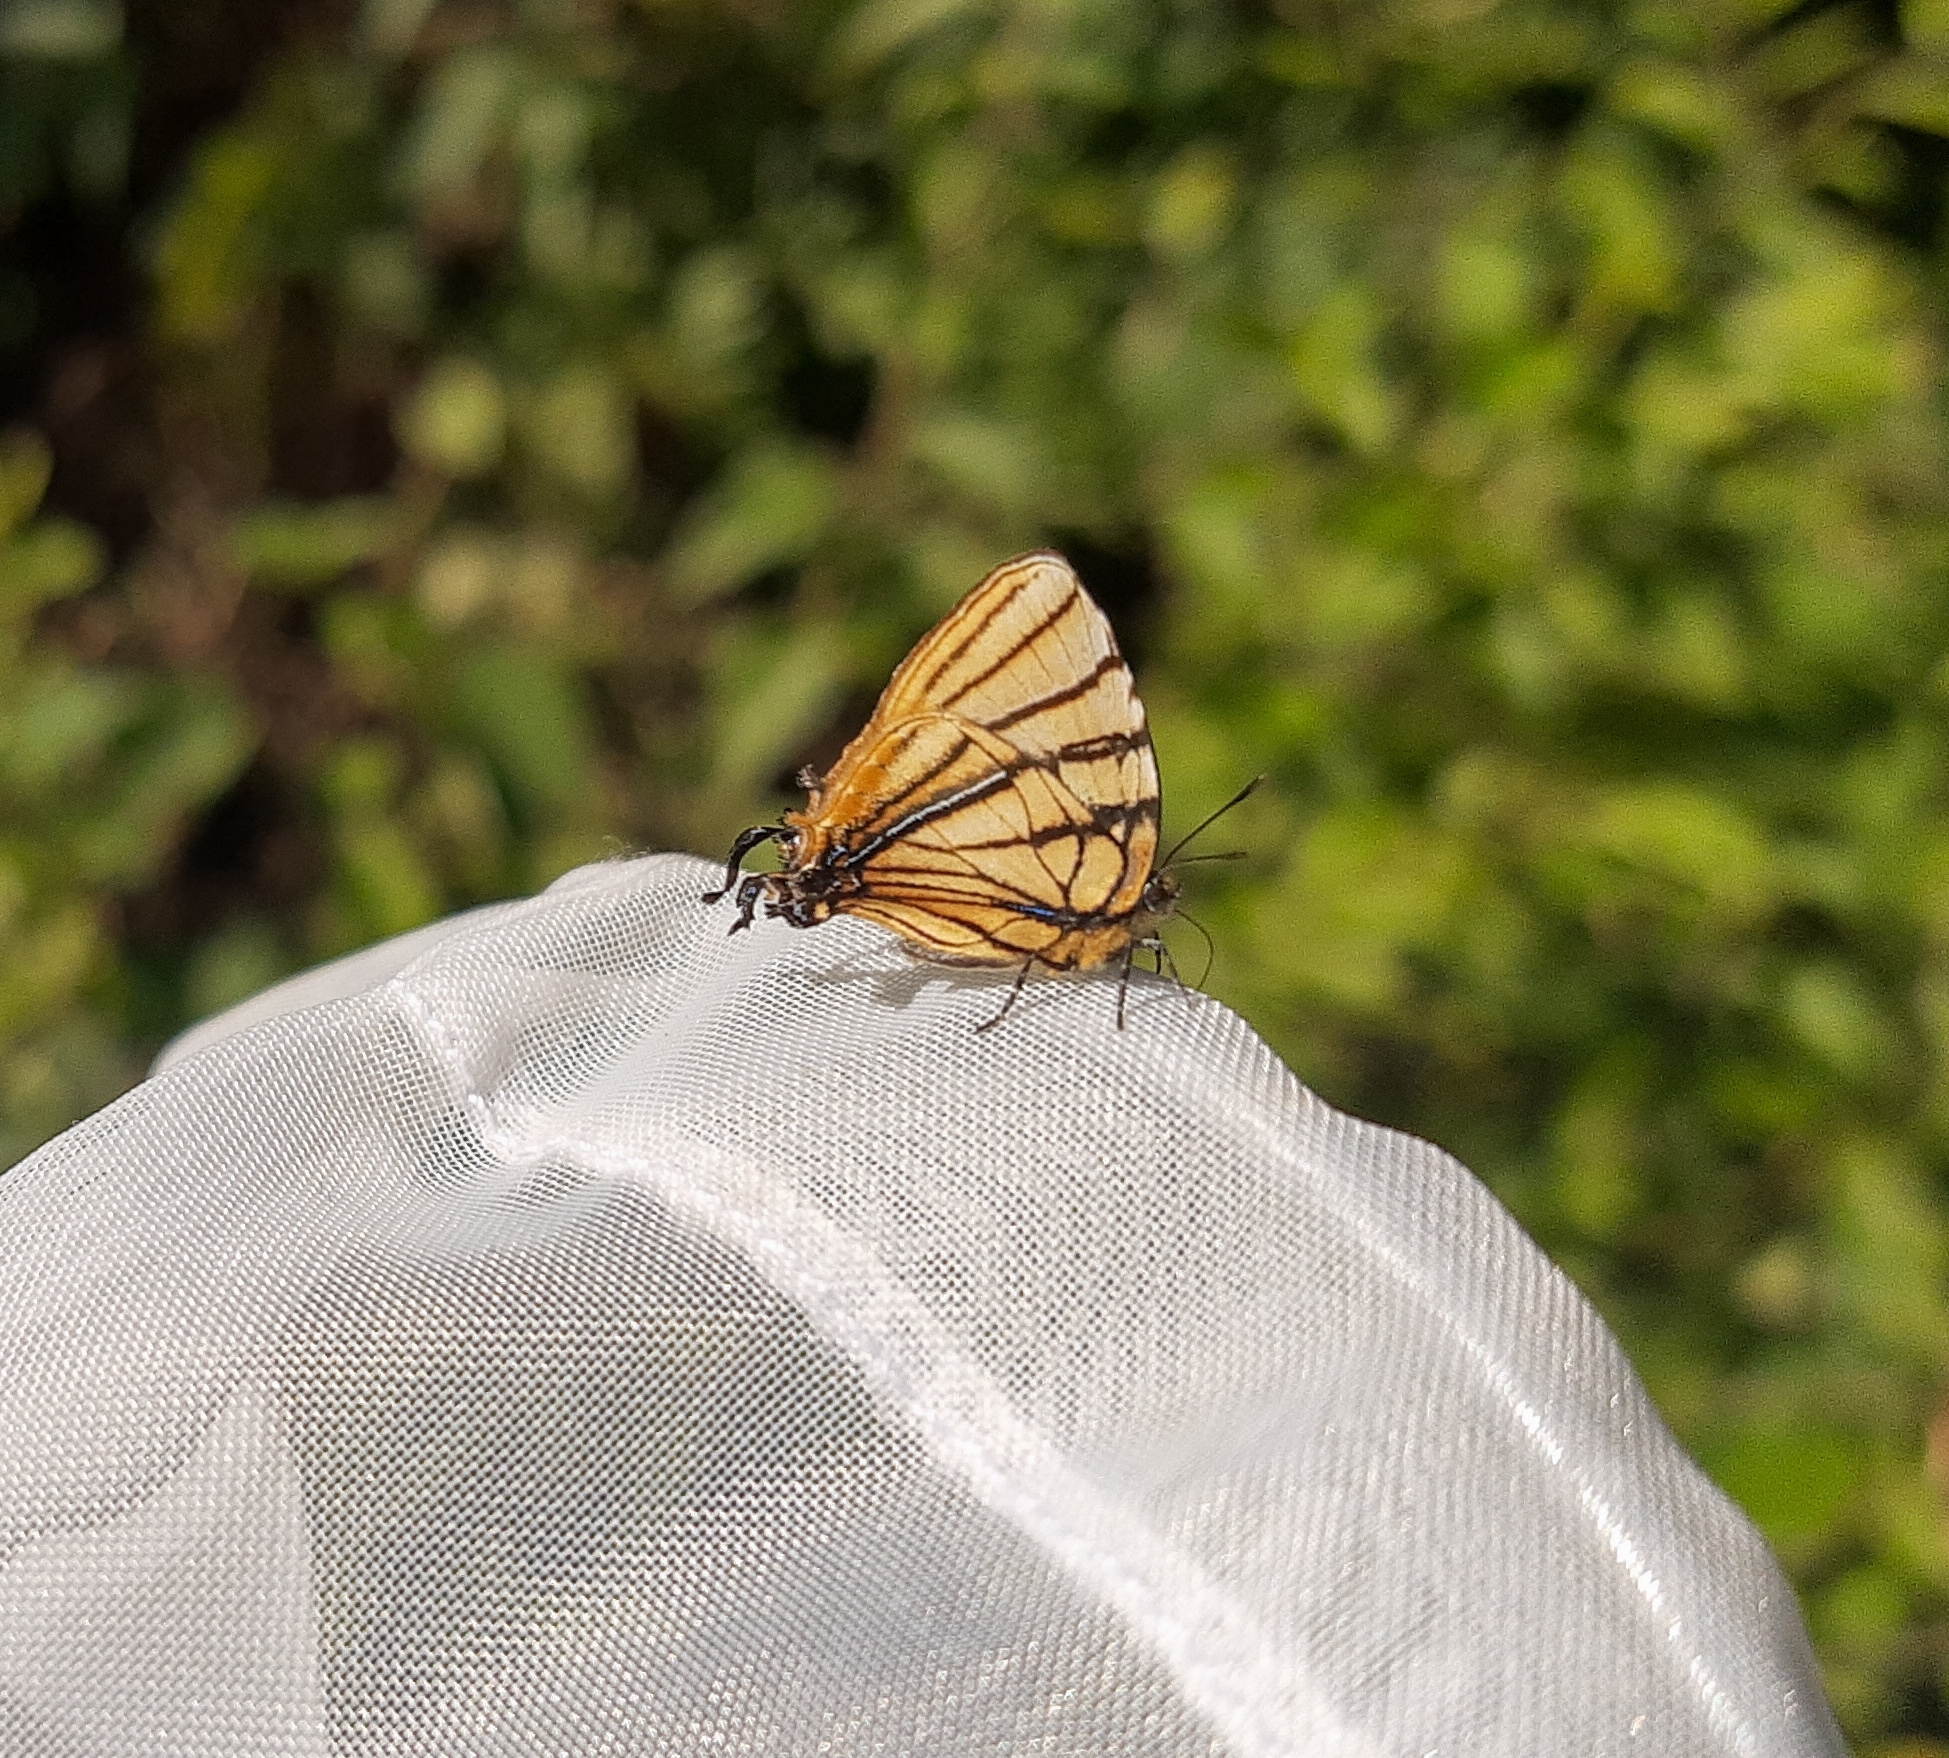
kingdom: Animalia
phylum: Arthropoda
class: Insecta
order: Lepidoptera
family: Lycaenidae
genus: Arawacus
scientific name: Arawacus melibaeus
